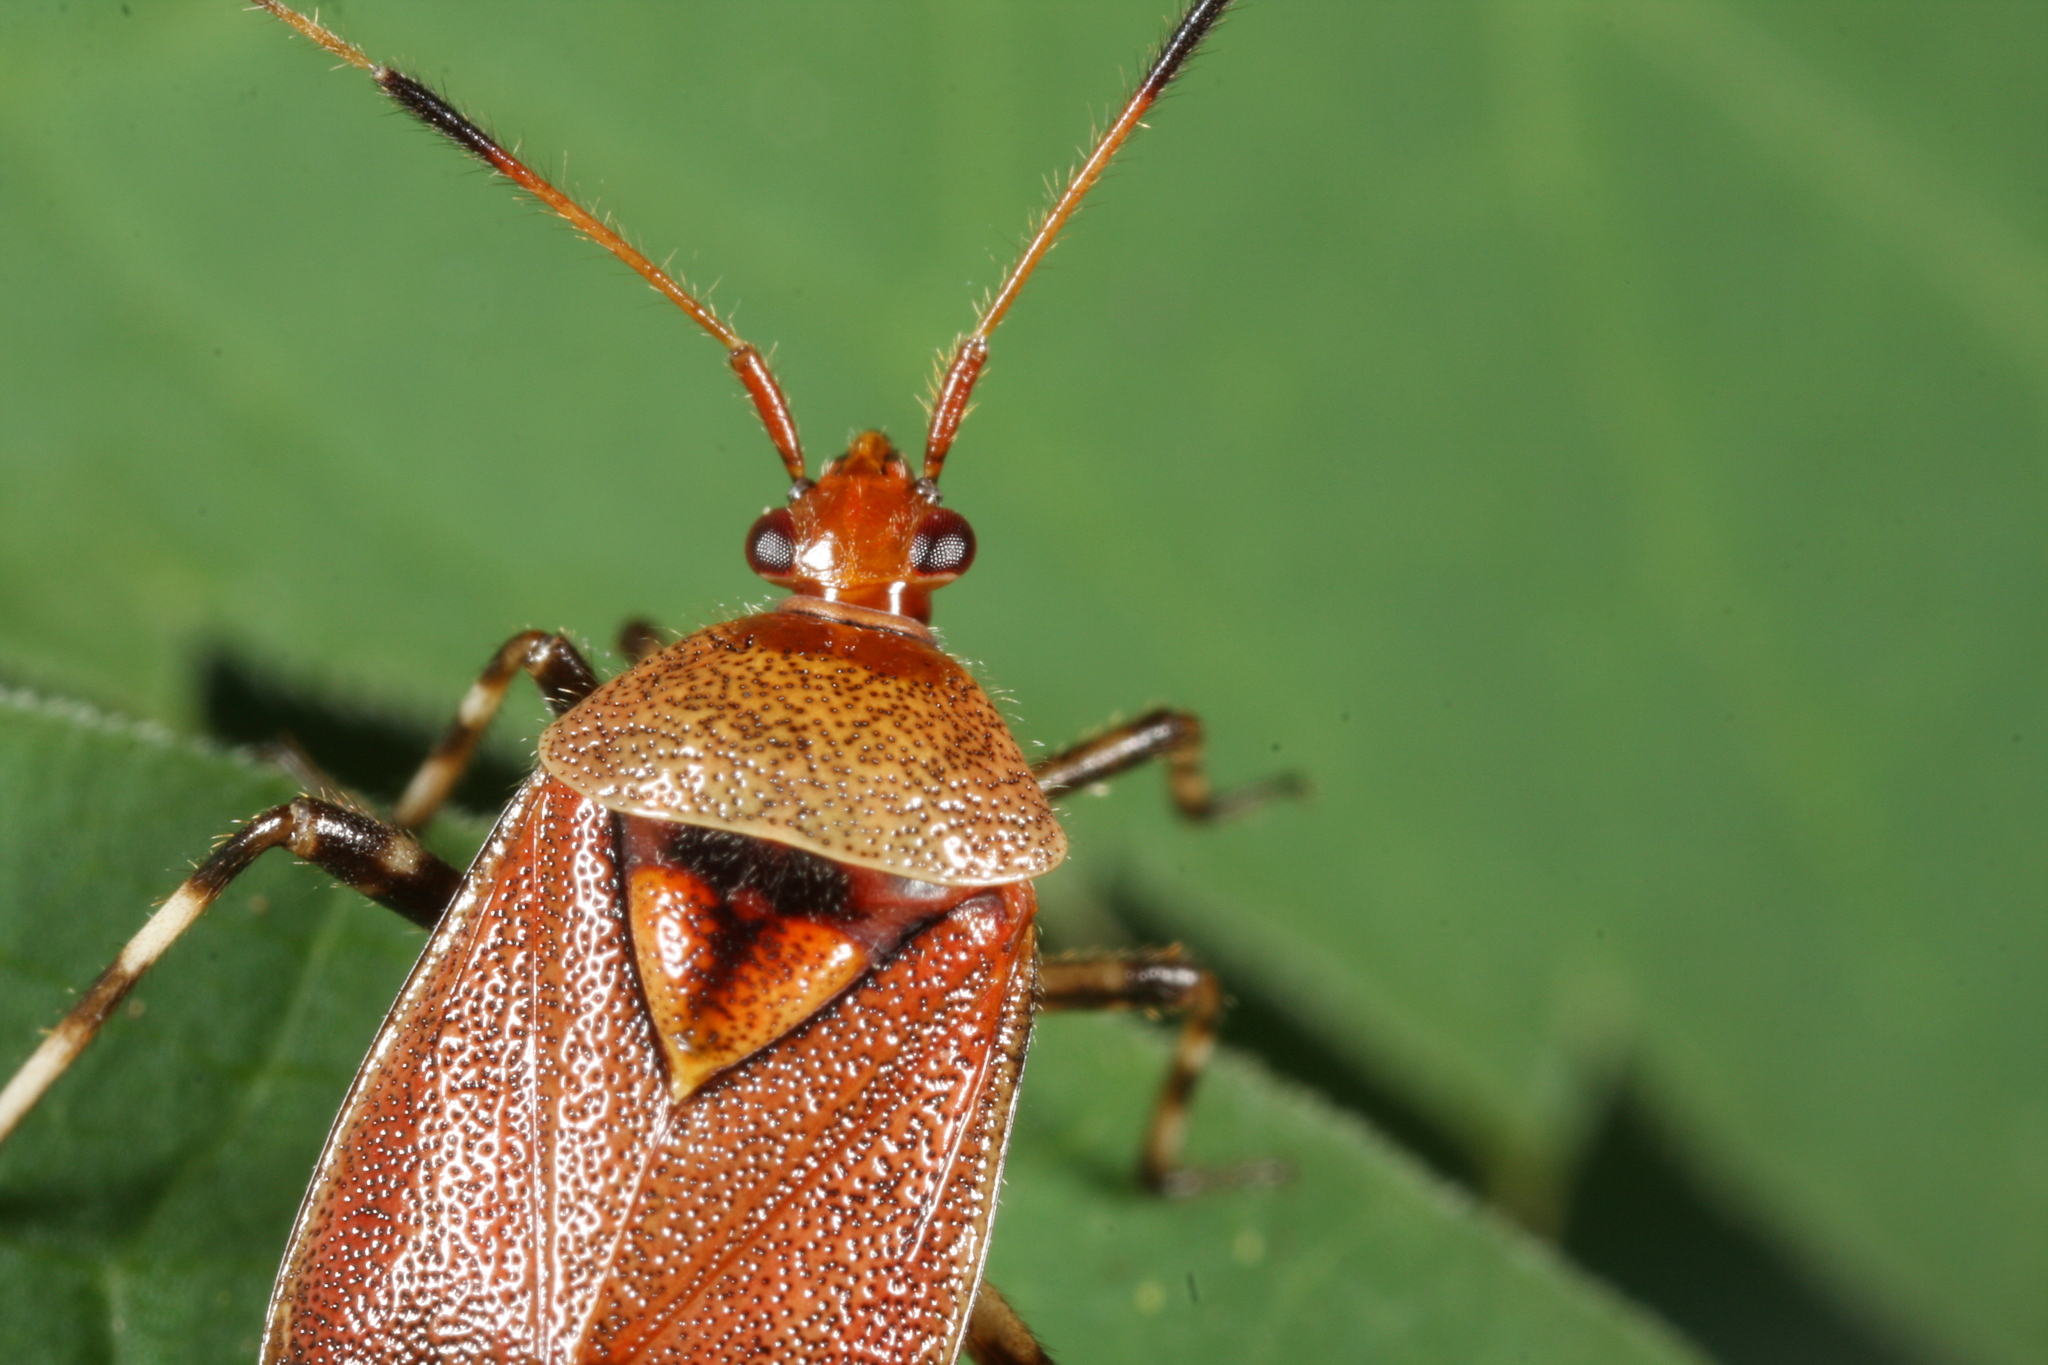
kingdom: Animalia
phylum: Arthropoda
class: Insecta
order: Hemiptera
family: Miridae
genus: Deraeocoris
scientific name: Deraeocoris olivaceus
